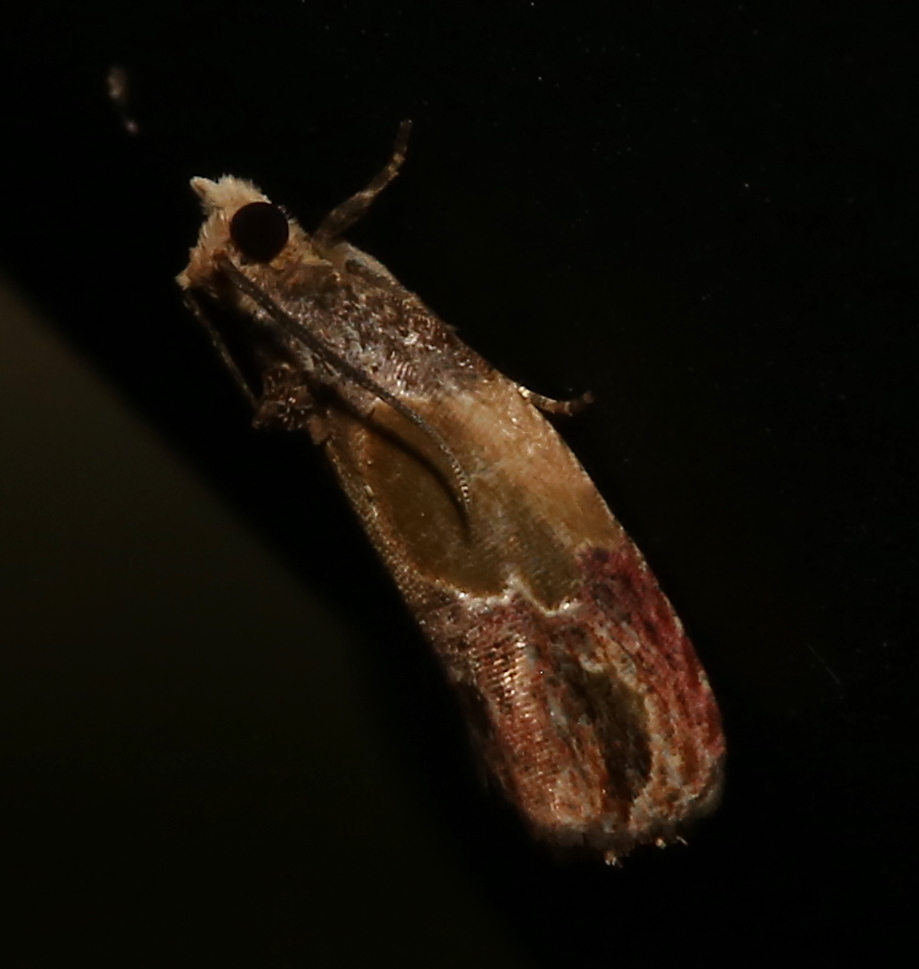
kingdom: Animalia
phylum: Arthropoda
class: Insecta
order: Lepidoptera
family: Tortricidae
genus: Eumarozia
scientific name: Eumarozia malachitana
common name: Sculptured moth
